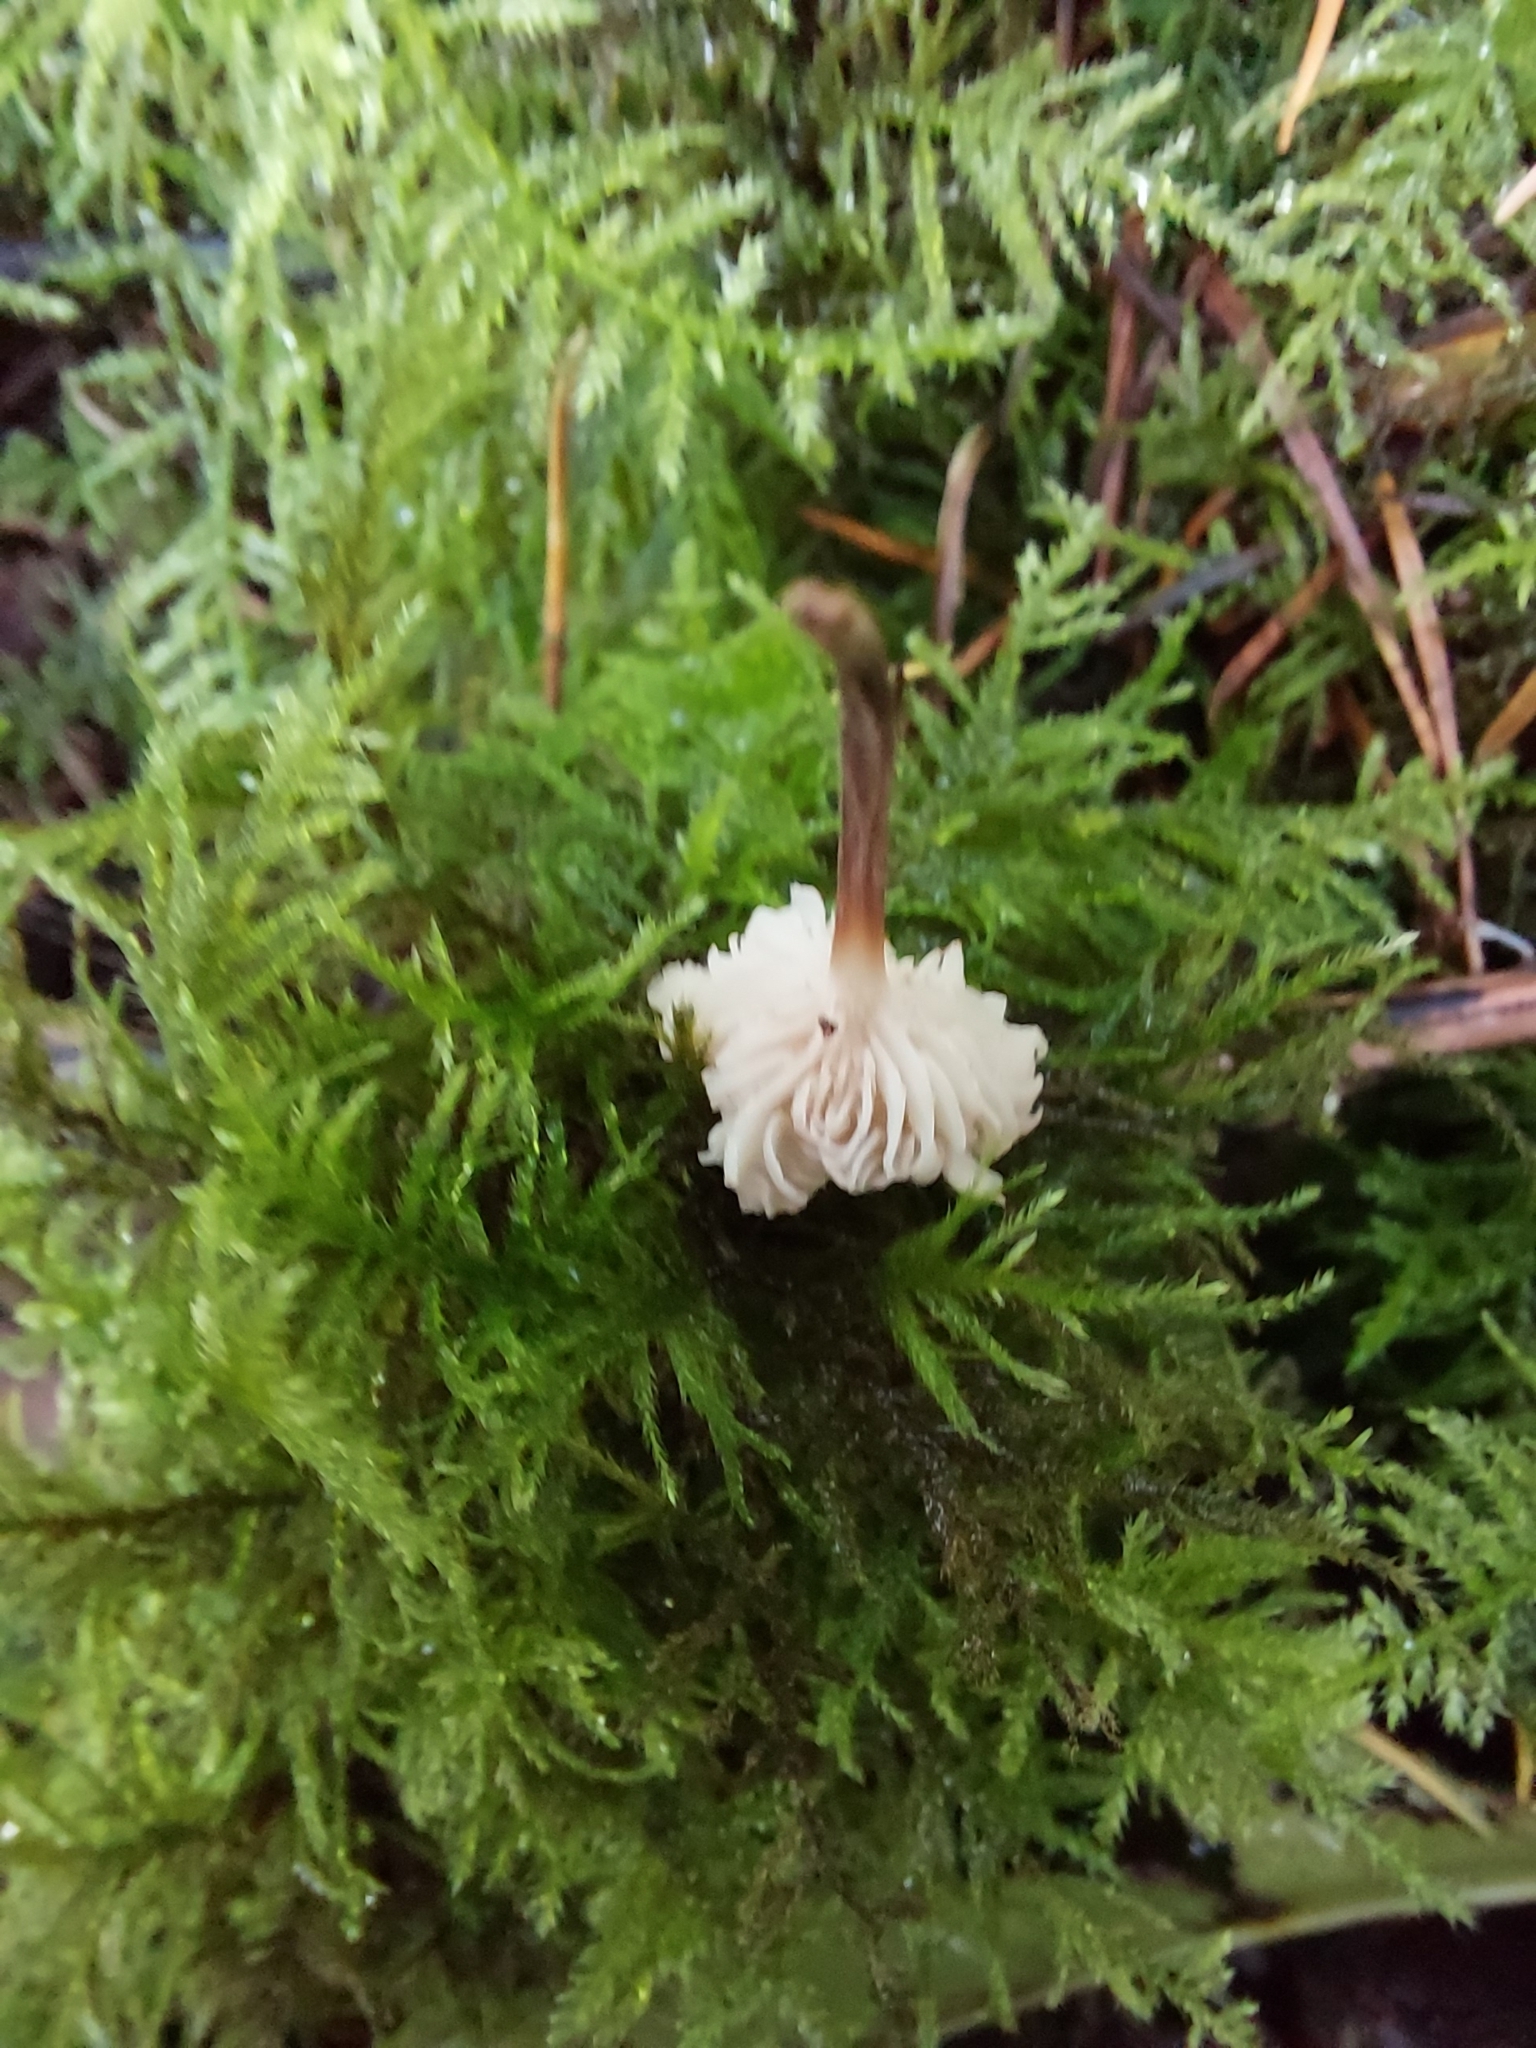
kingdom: Fungi
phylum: Basidiomycota
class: Agaricomycetes
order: Agaricales
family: Omphalotaceae
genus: Collybiopsis
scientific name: Collybiopsis ramealis
